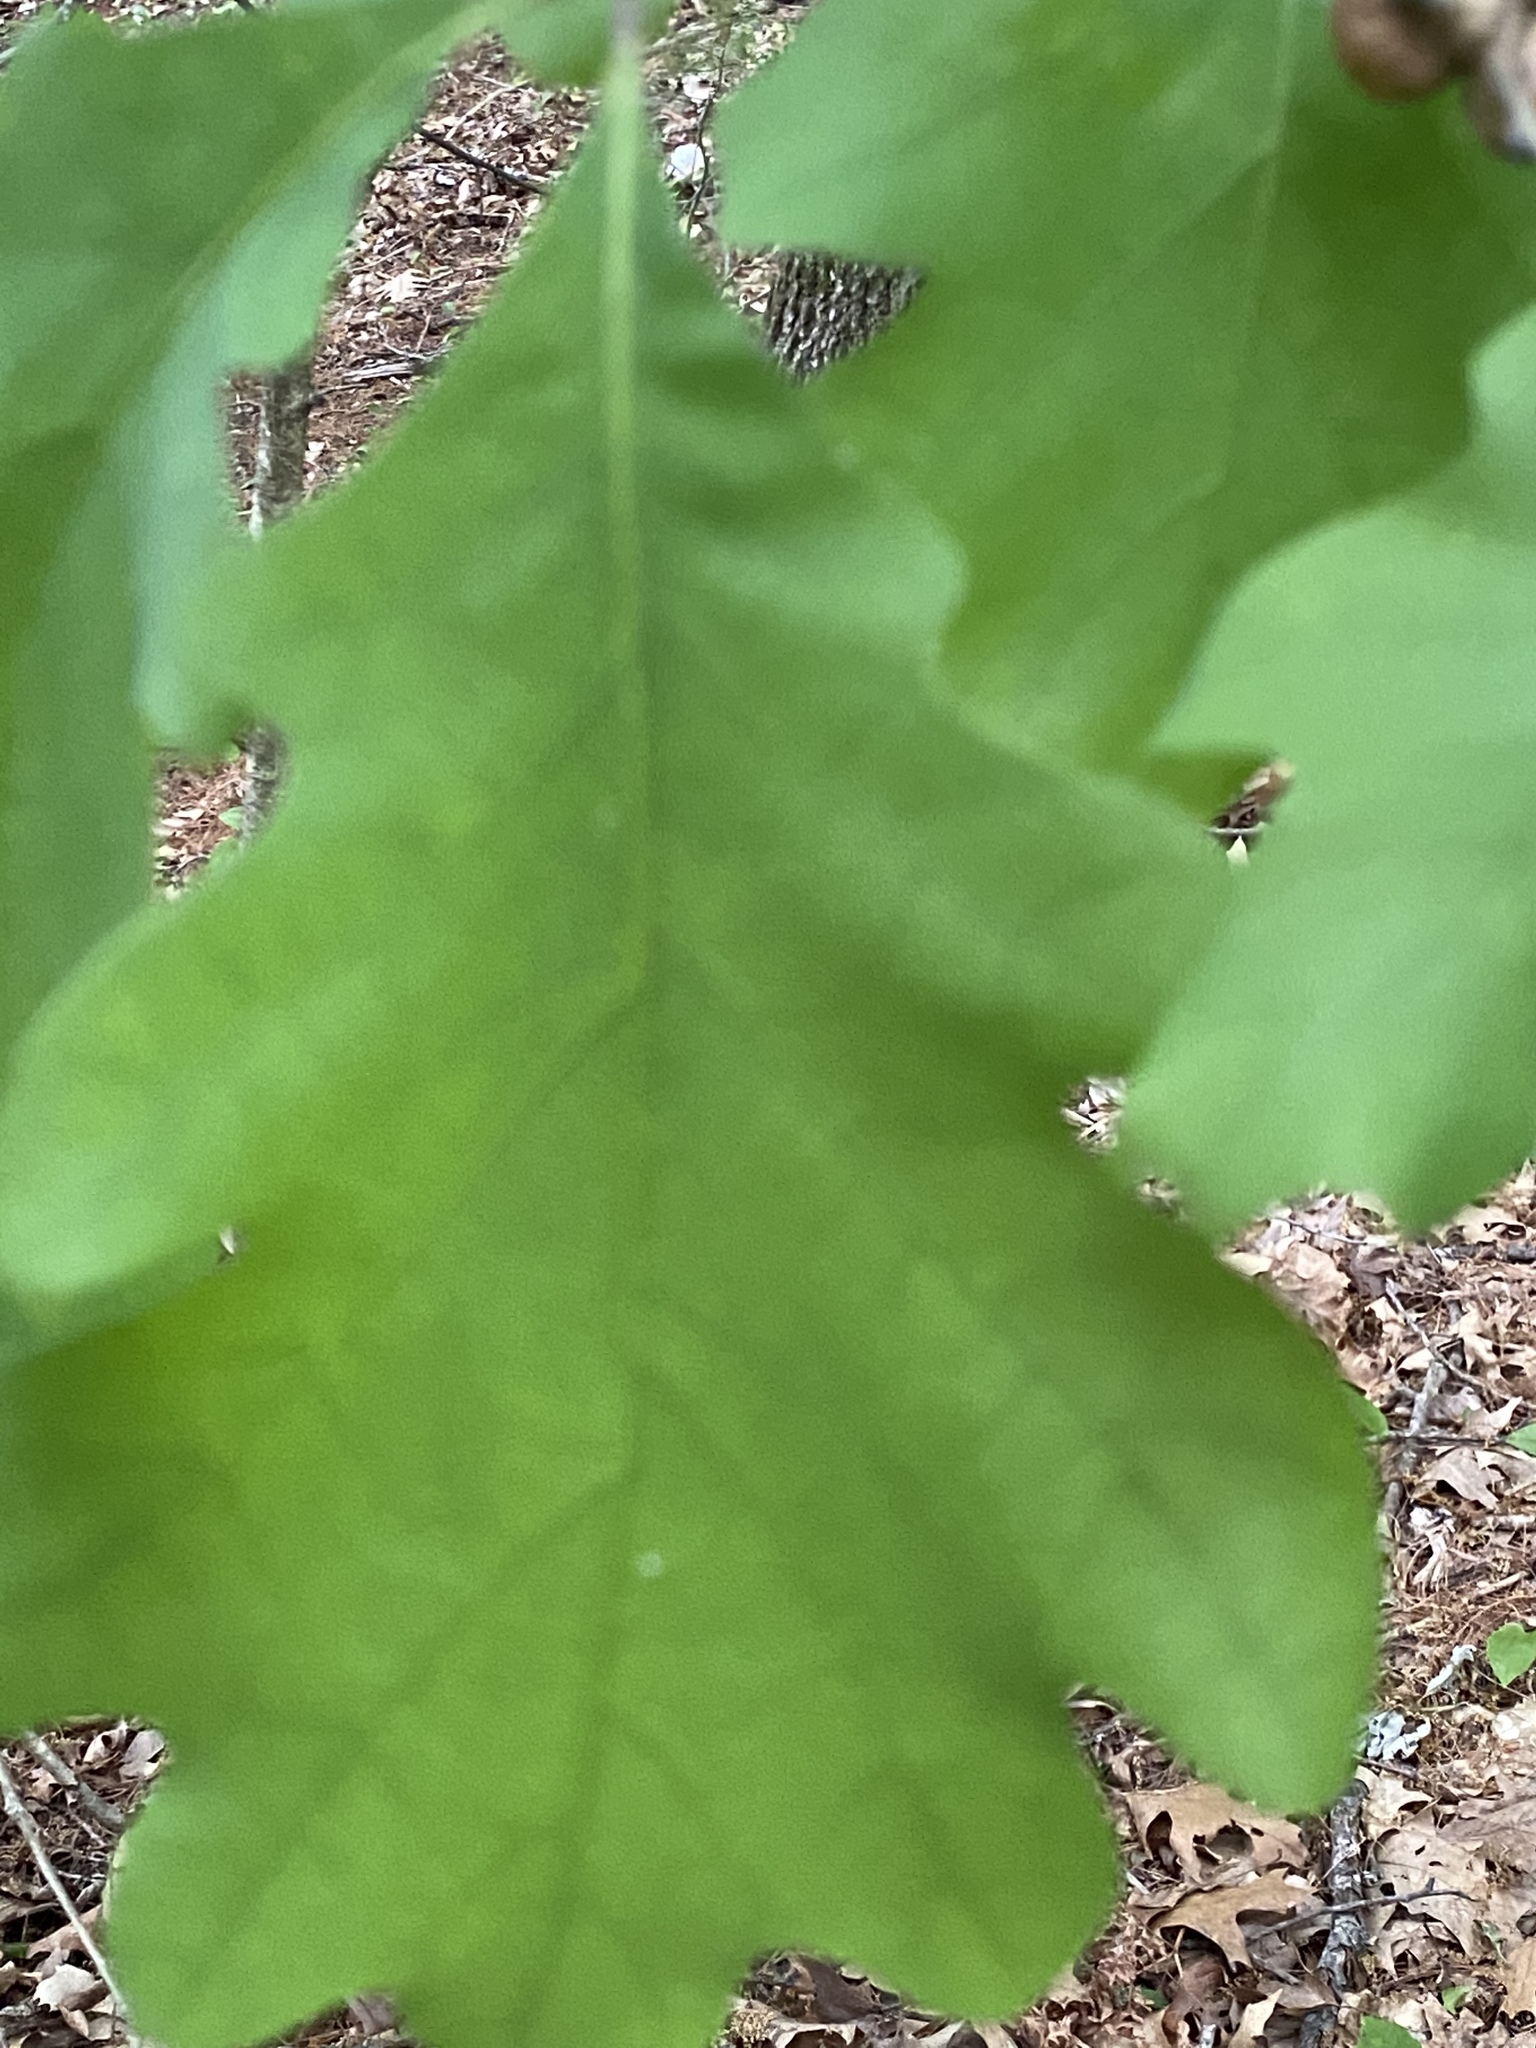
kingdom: Animalia
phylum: Arthropoda
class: Insecta
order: Hymenoptera
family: Cynipidae
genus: Disholcaspis
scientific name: Disholcaspis quercusglobulus
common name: Round bullet gall wasp
